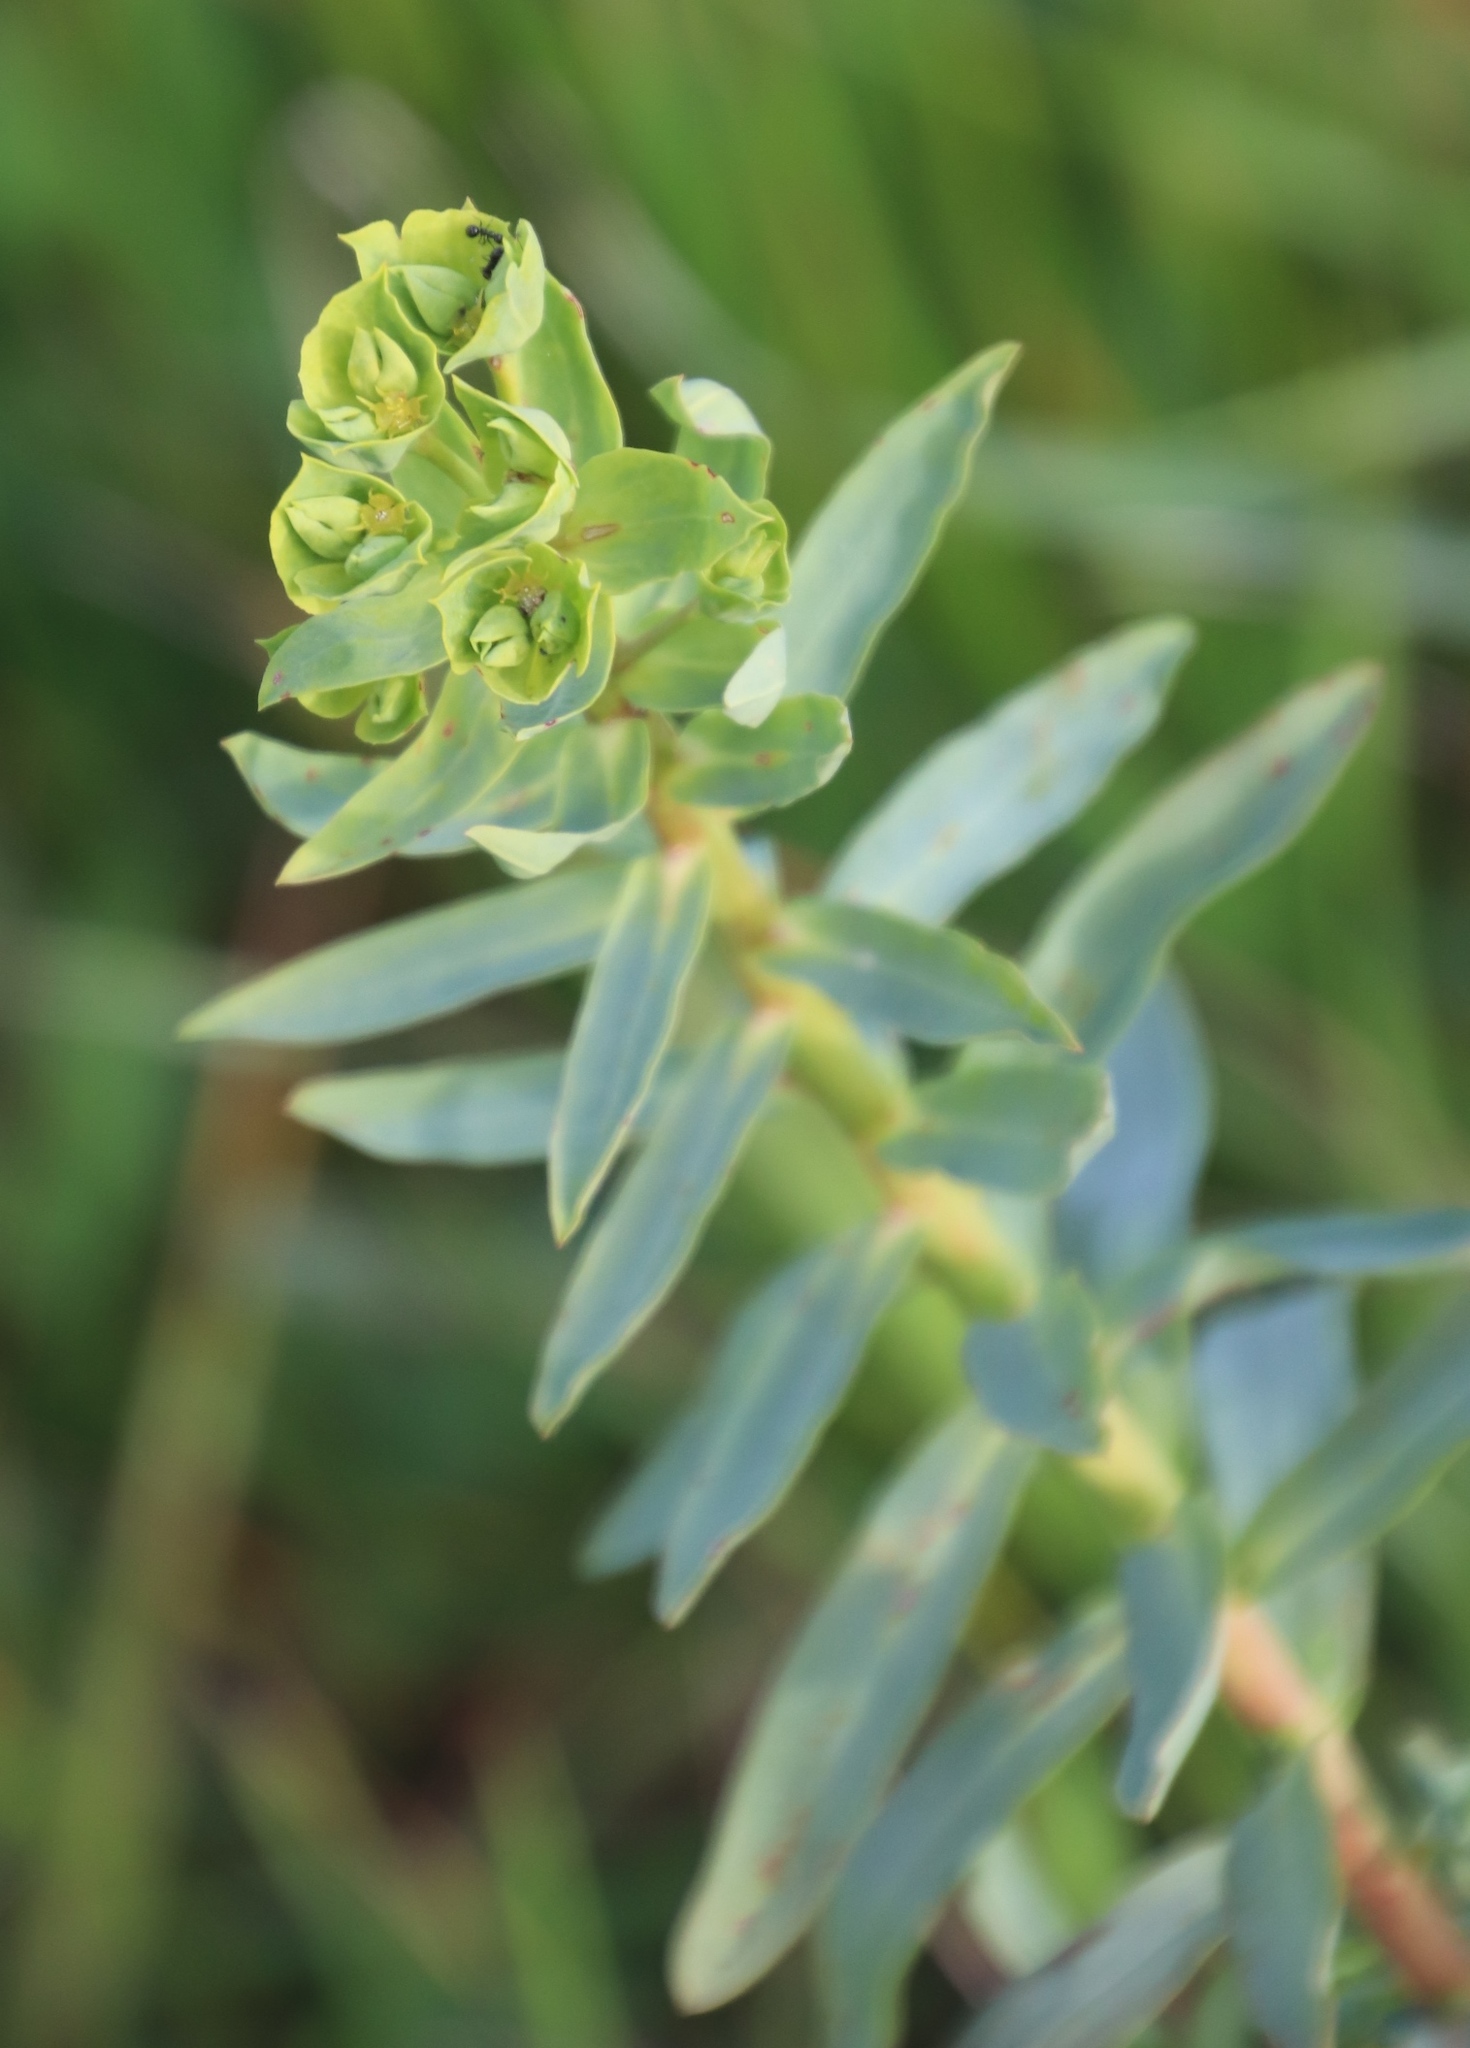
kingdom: Plantae
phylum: Tracheophyta
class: Magnoliopsida
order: Malpighiales
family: Euphorbiaceae
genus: Euphorbia
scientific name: Euphorbia terracina
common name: Geraldton carnation weed
